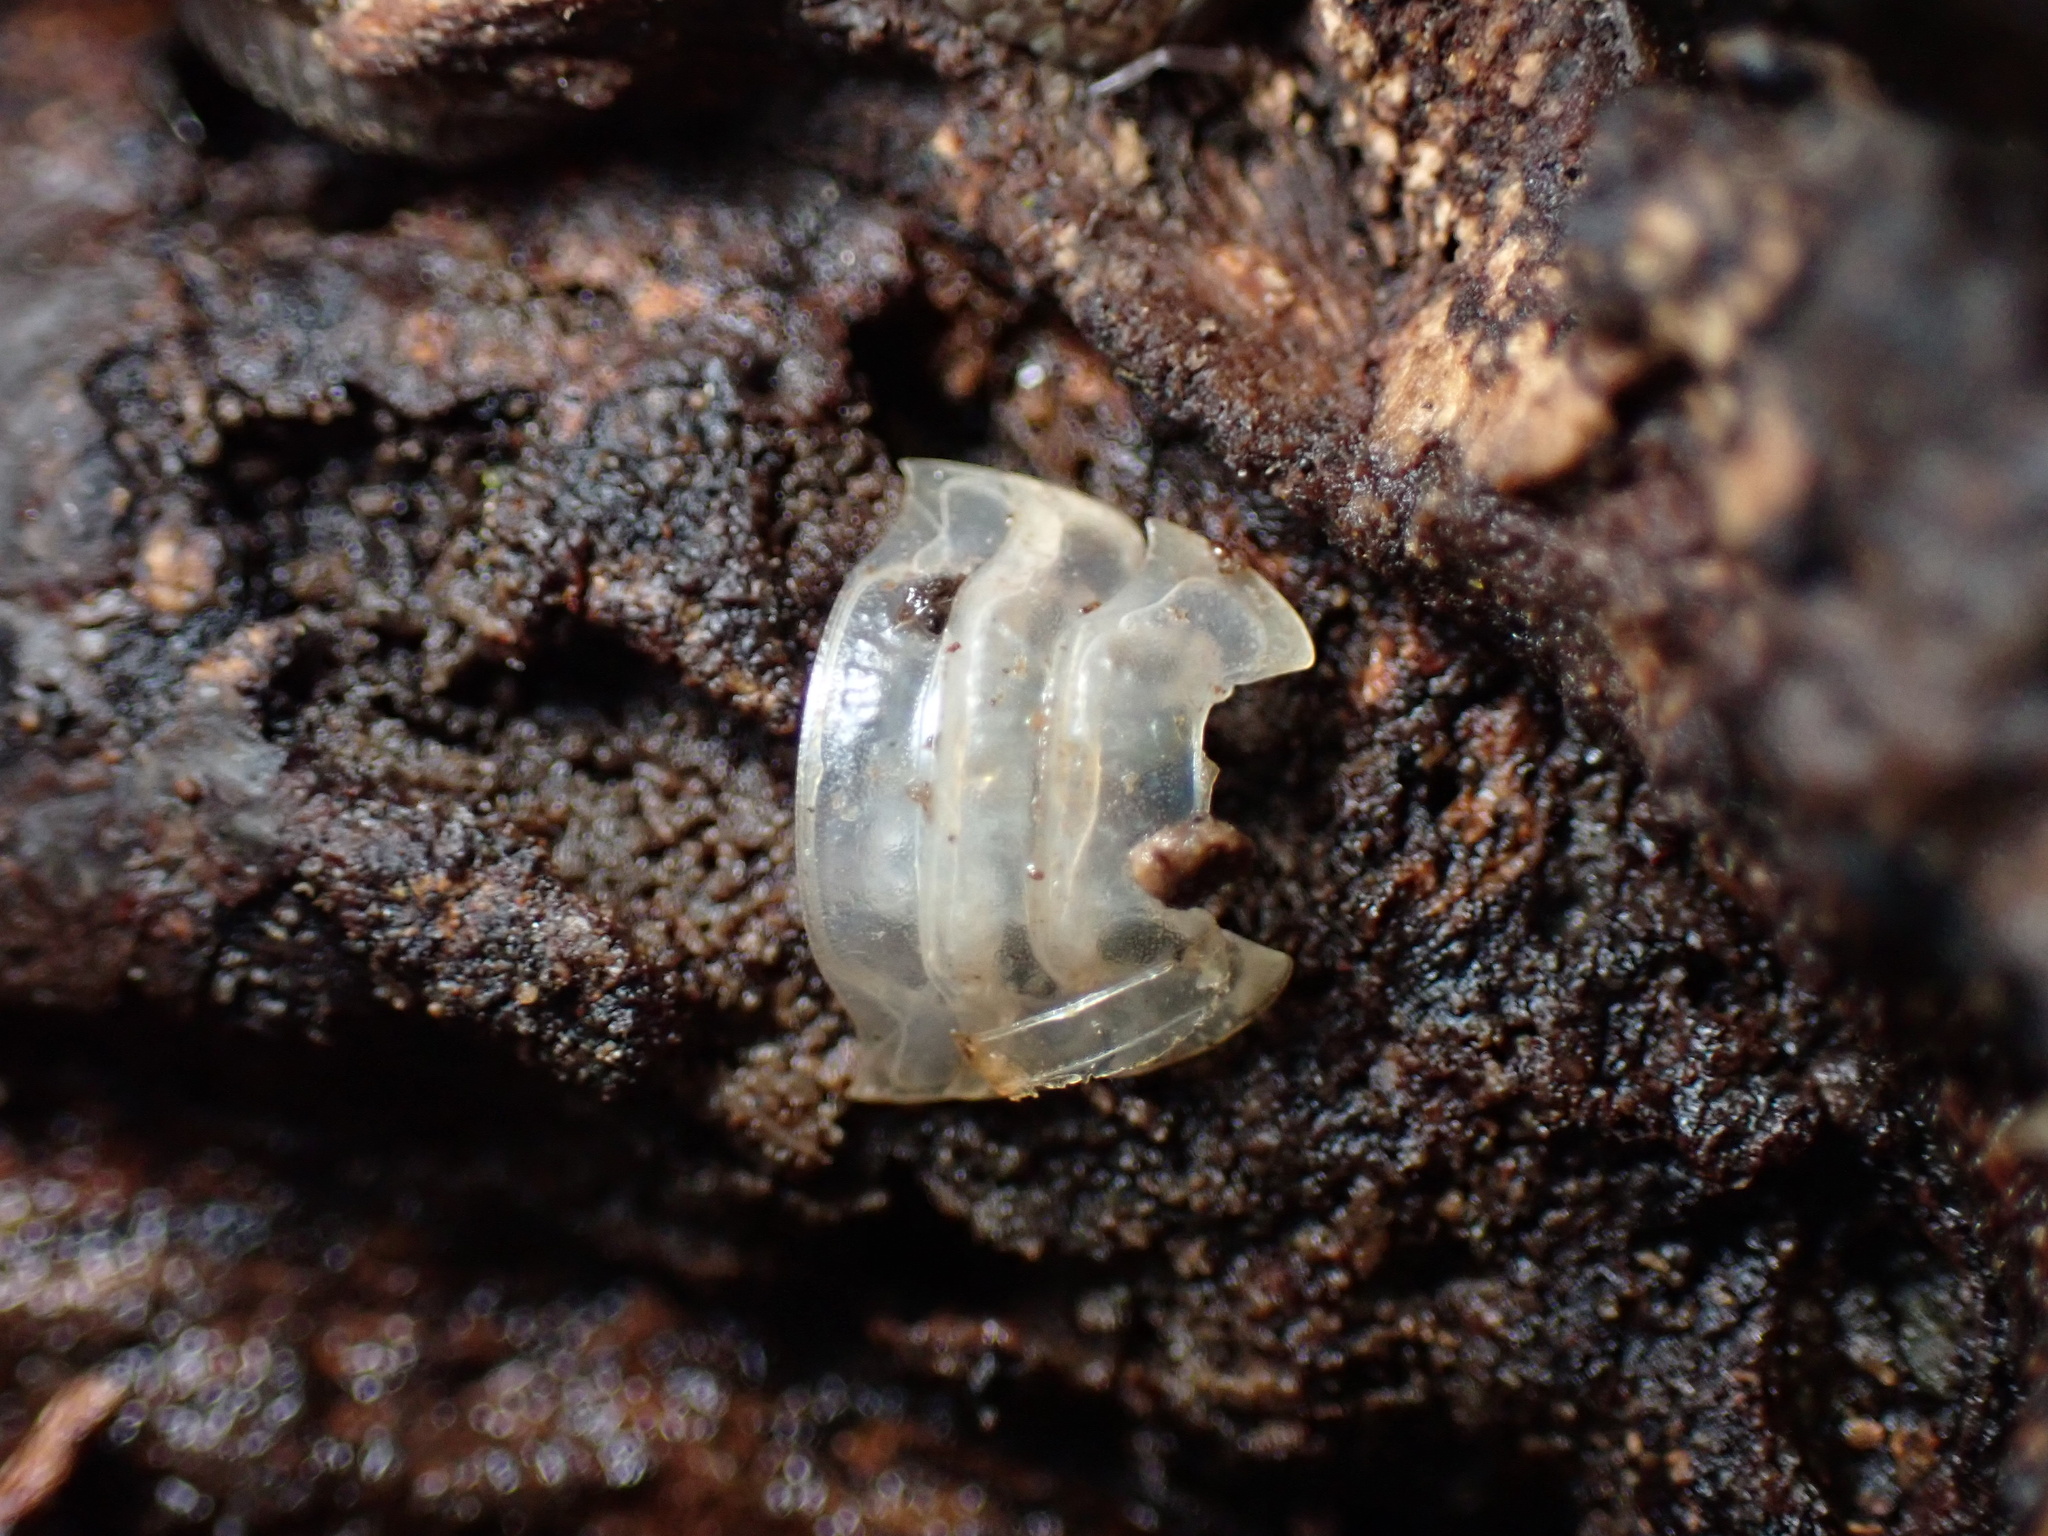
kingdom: Animalia
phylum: Arthropoda
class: Malacostraca
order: Isopoda
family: Oniscidae
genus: Oniscus
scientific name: Oniscus asellus
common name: Common shiny woodlouse
